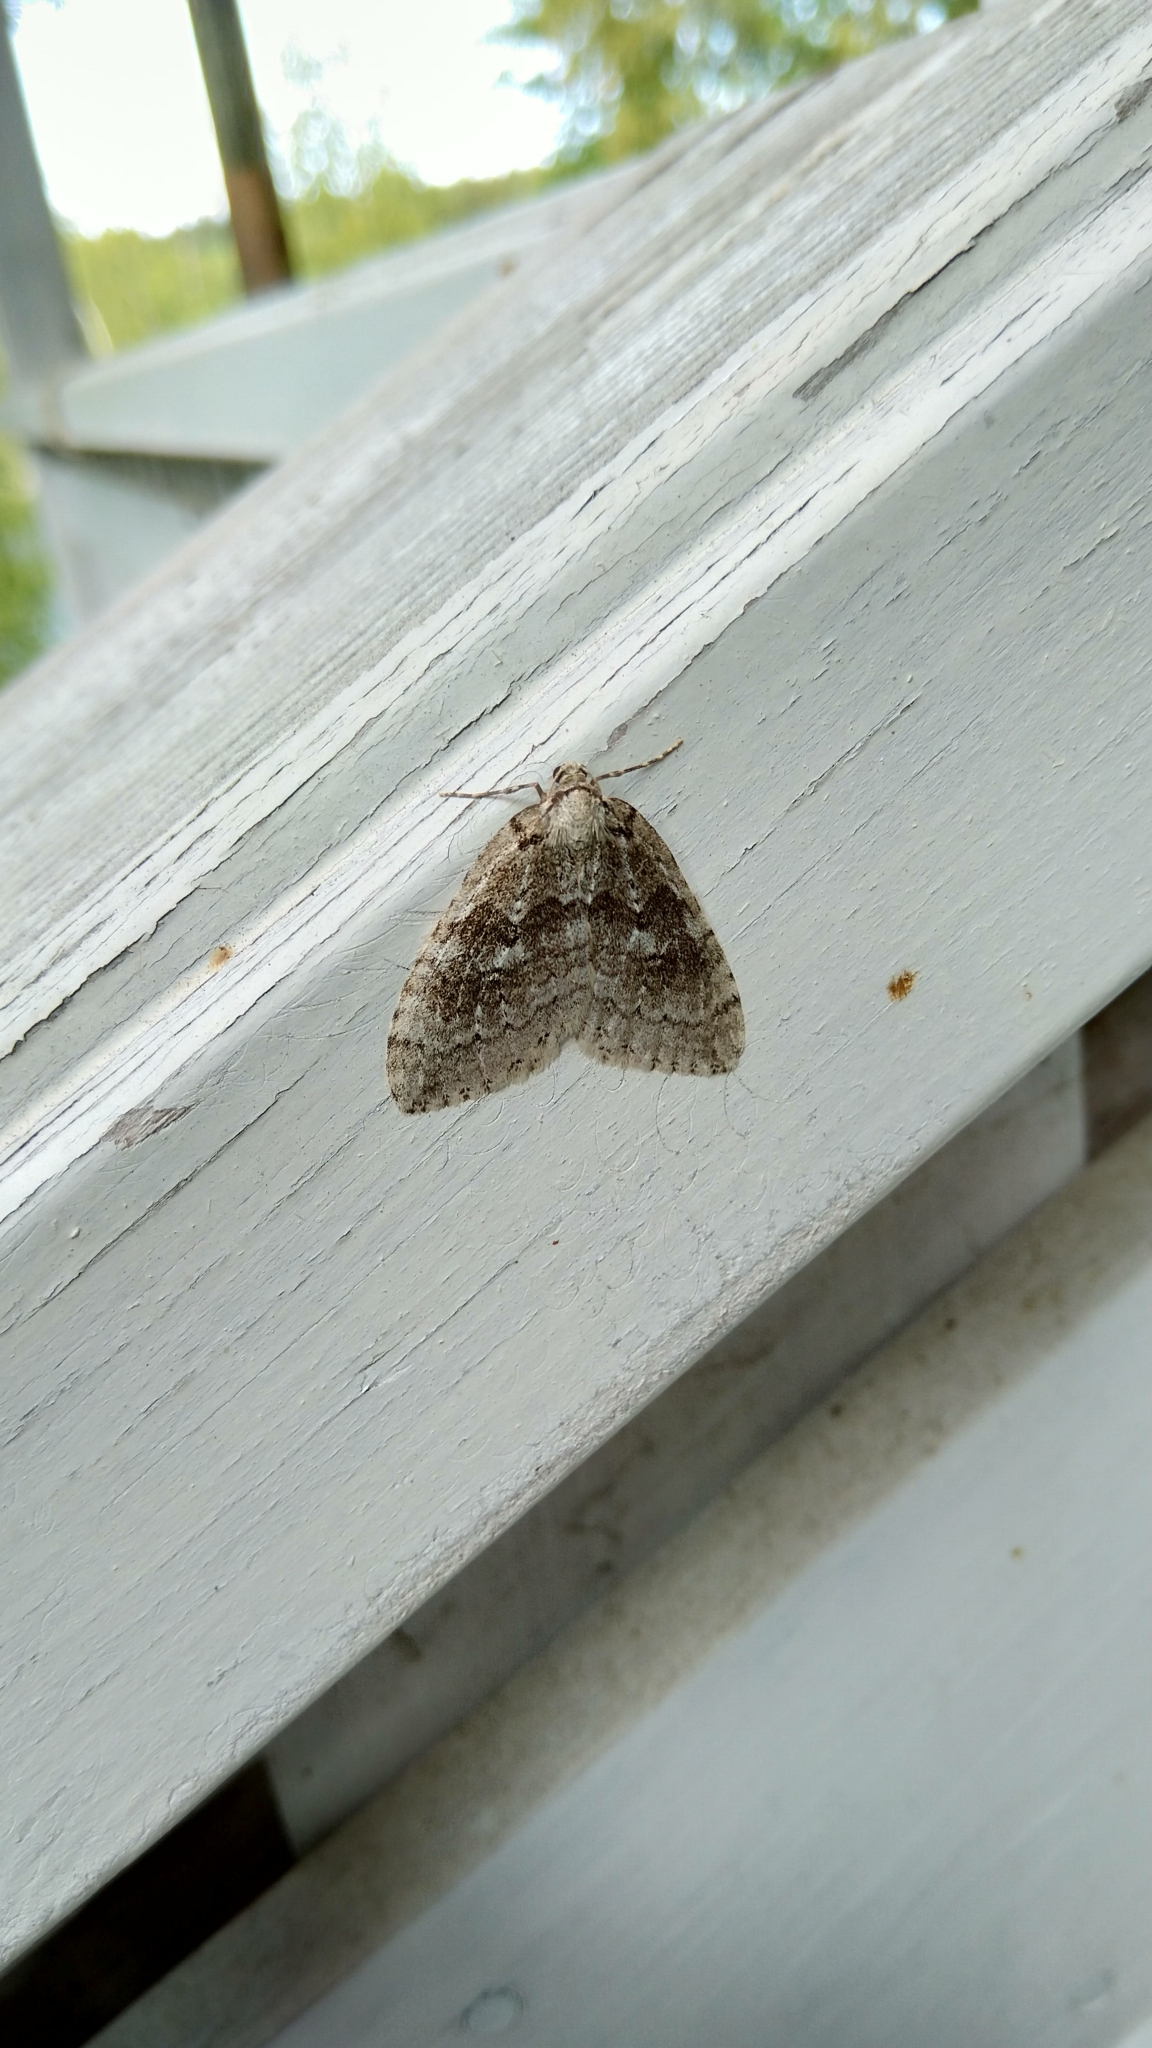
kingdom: Animalia
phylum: Arthropoda
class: Insecta
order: Lepidoptera
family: Geometridae
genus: Epirrita
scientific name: Epirrita autumnata
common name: Autumnal moth
